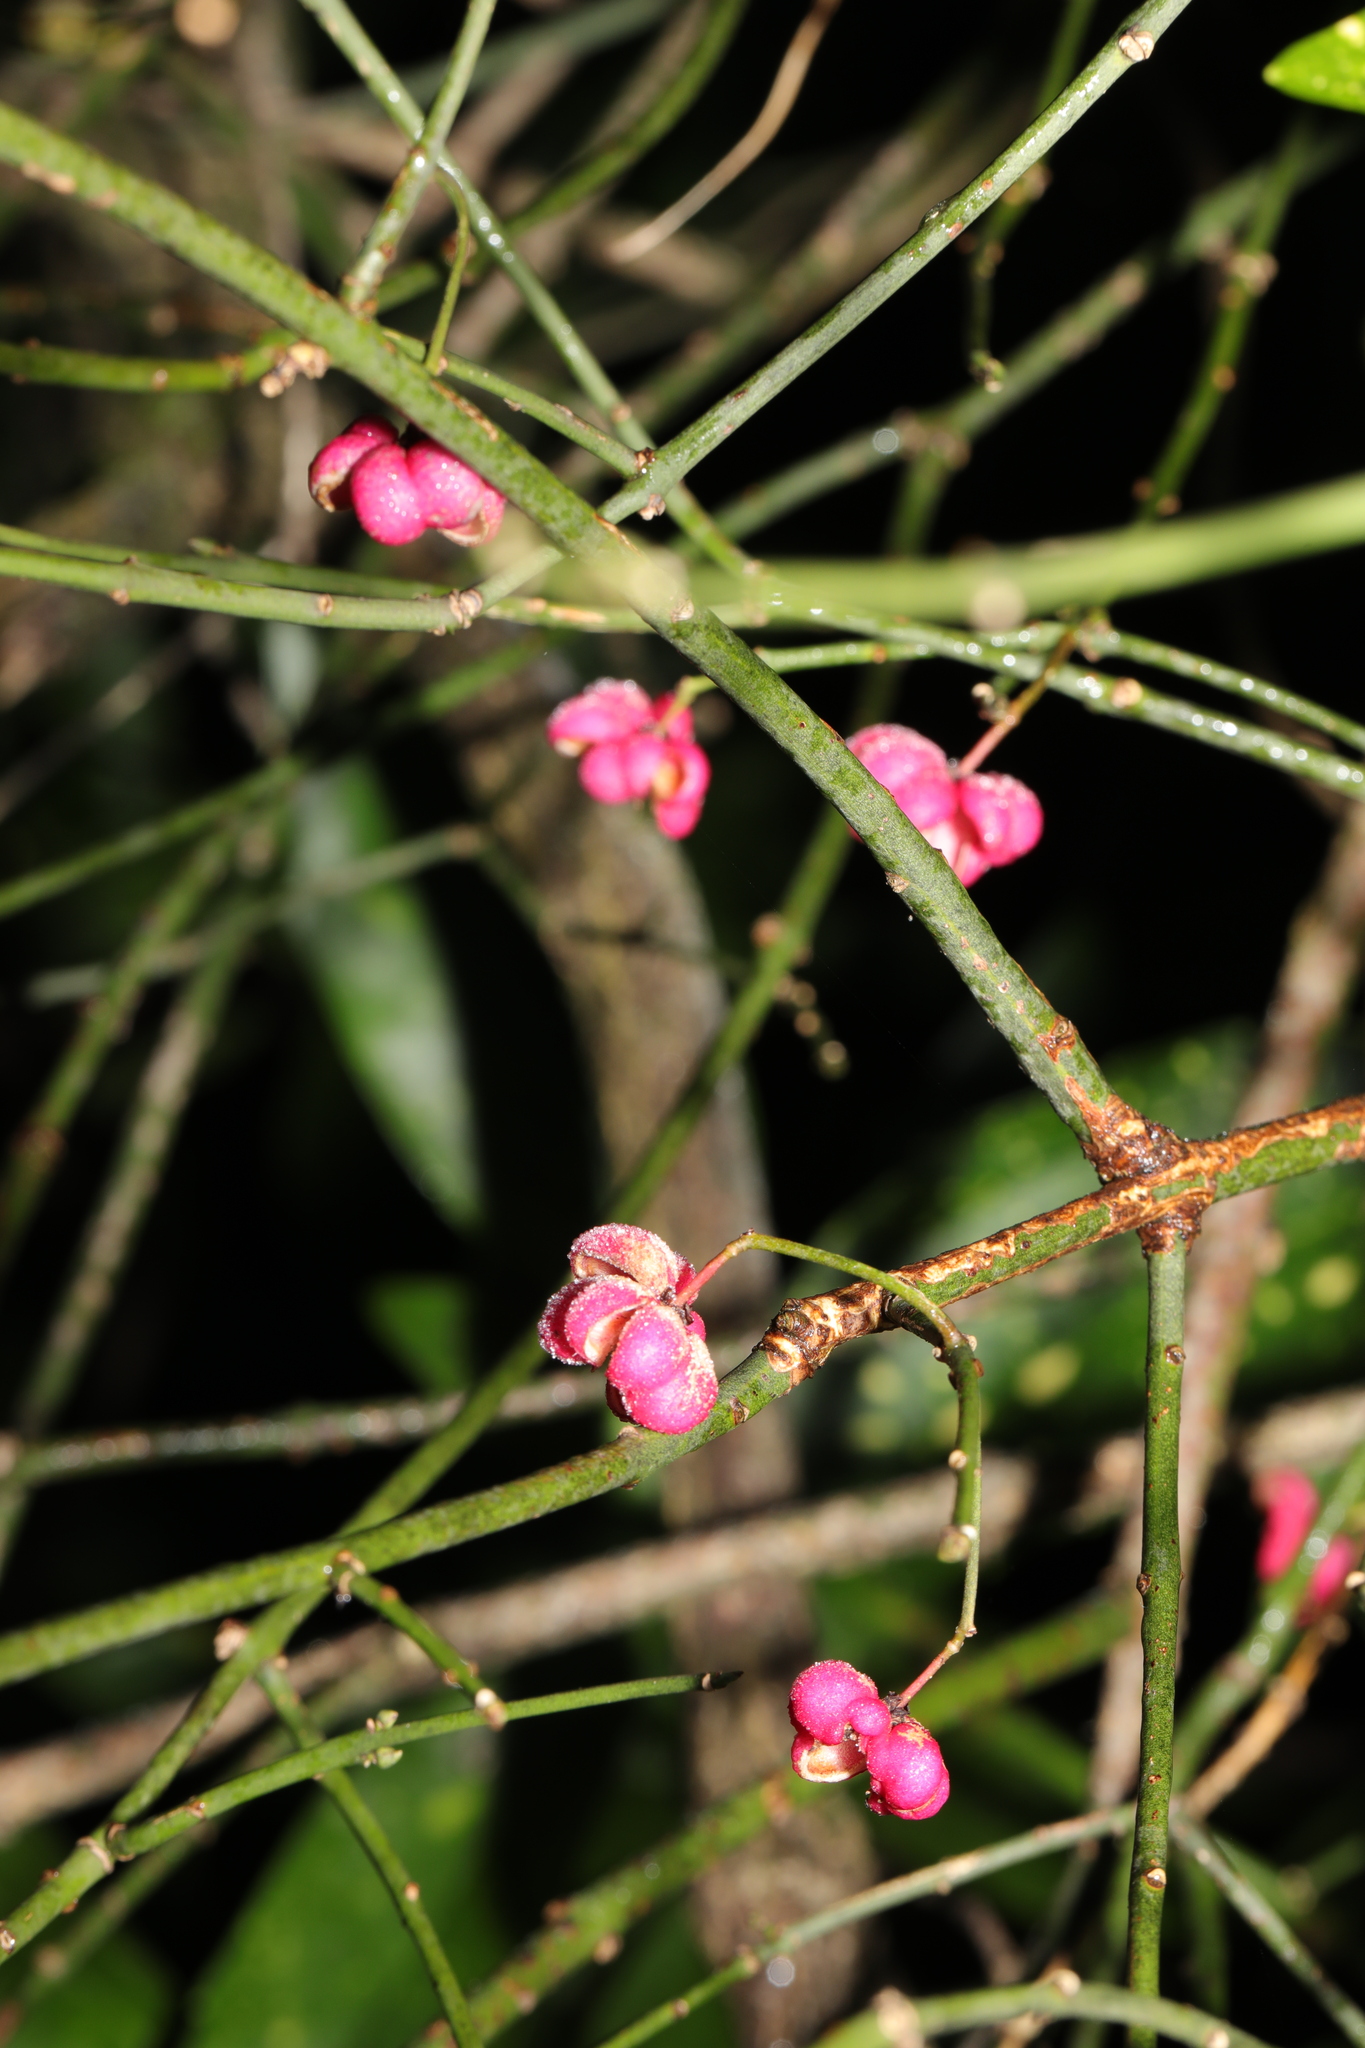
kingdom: Plantae
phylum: Tracheophyta
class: Magnoliopsida
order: Celastrales
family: Celastraceae
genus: Euonymus
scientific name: Euonymus europaeus
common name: Spindle
